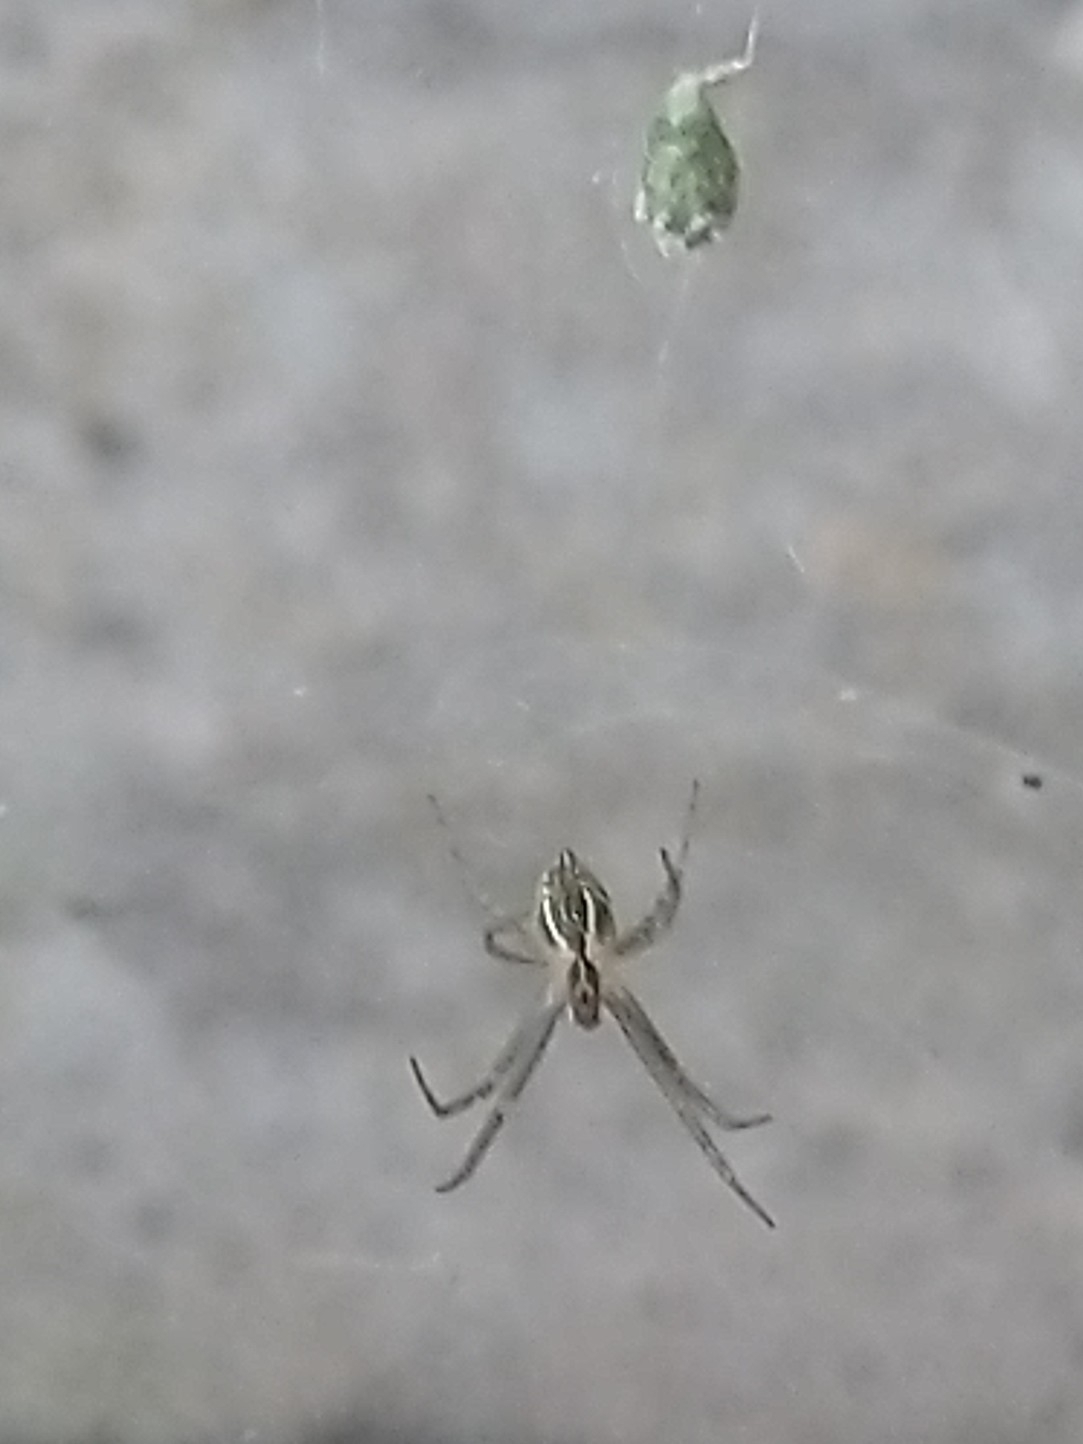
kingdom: Animalia
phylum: Arthropoda
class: Arachnida
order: Araneae
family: Araneidae
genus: Cyrtophora
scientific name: Cyrtophora cicatrosa
